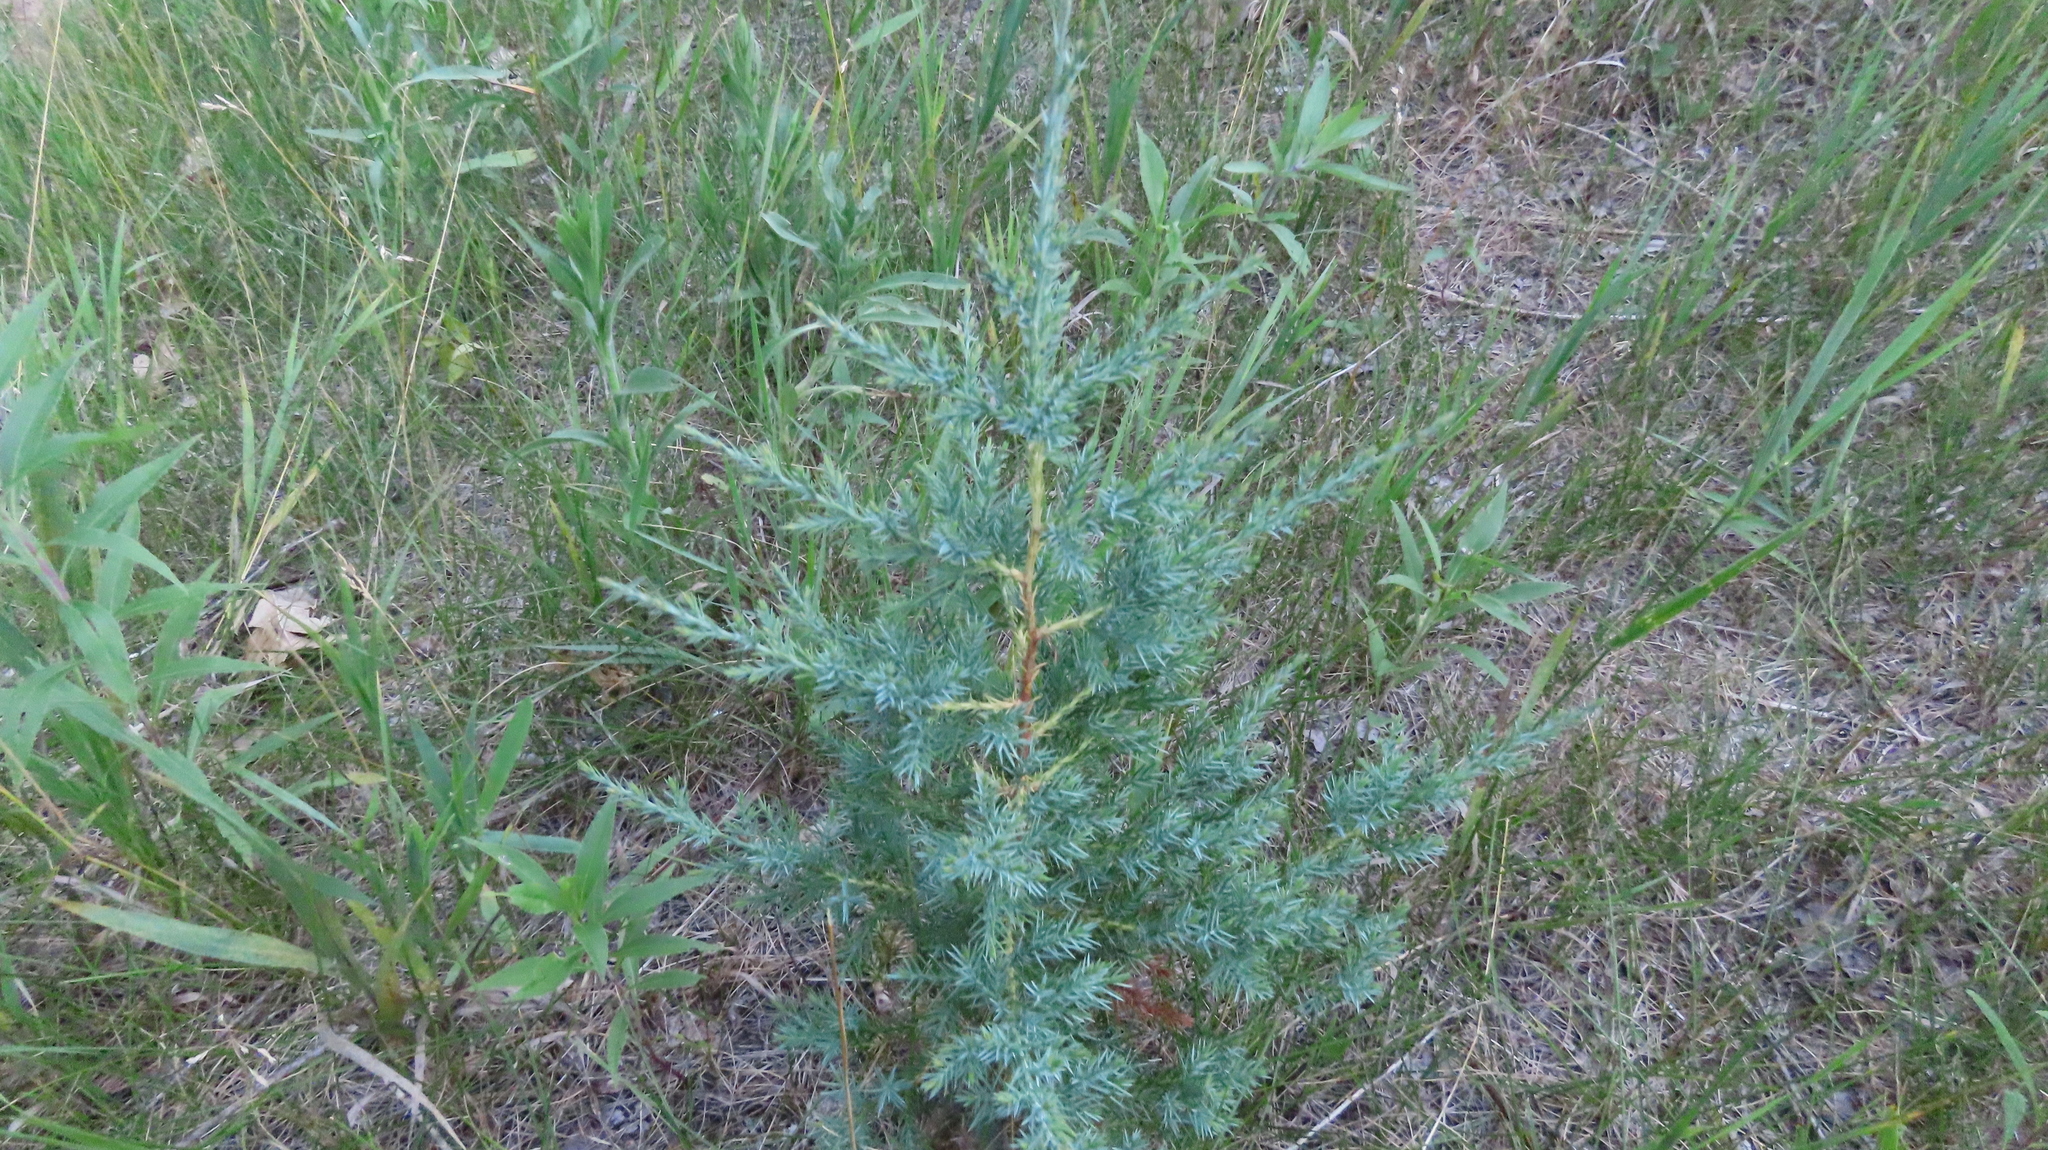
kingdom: Plantae
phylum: Tracheophyta
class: Pinopsida
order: Pinales
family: Cupressaceae
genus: Juniperus
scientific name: Juniperus virginiana
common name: Red juniper
